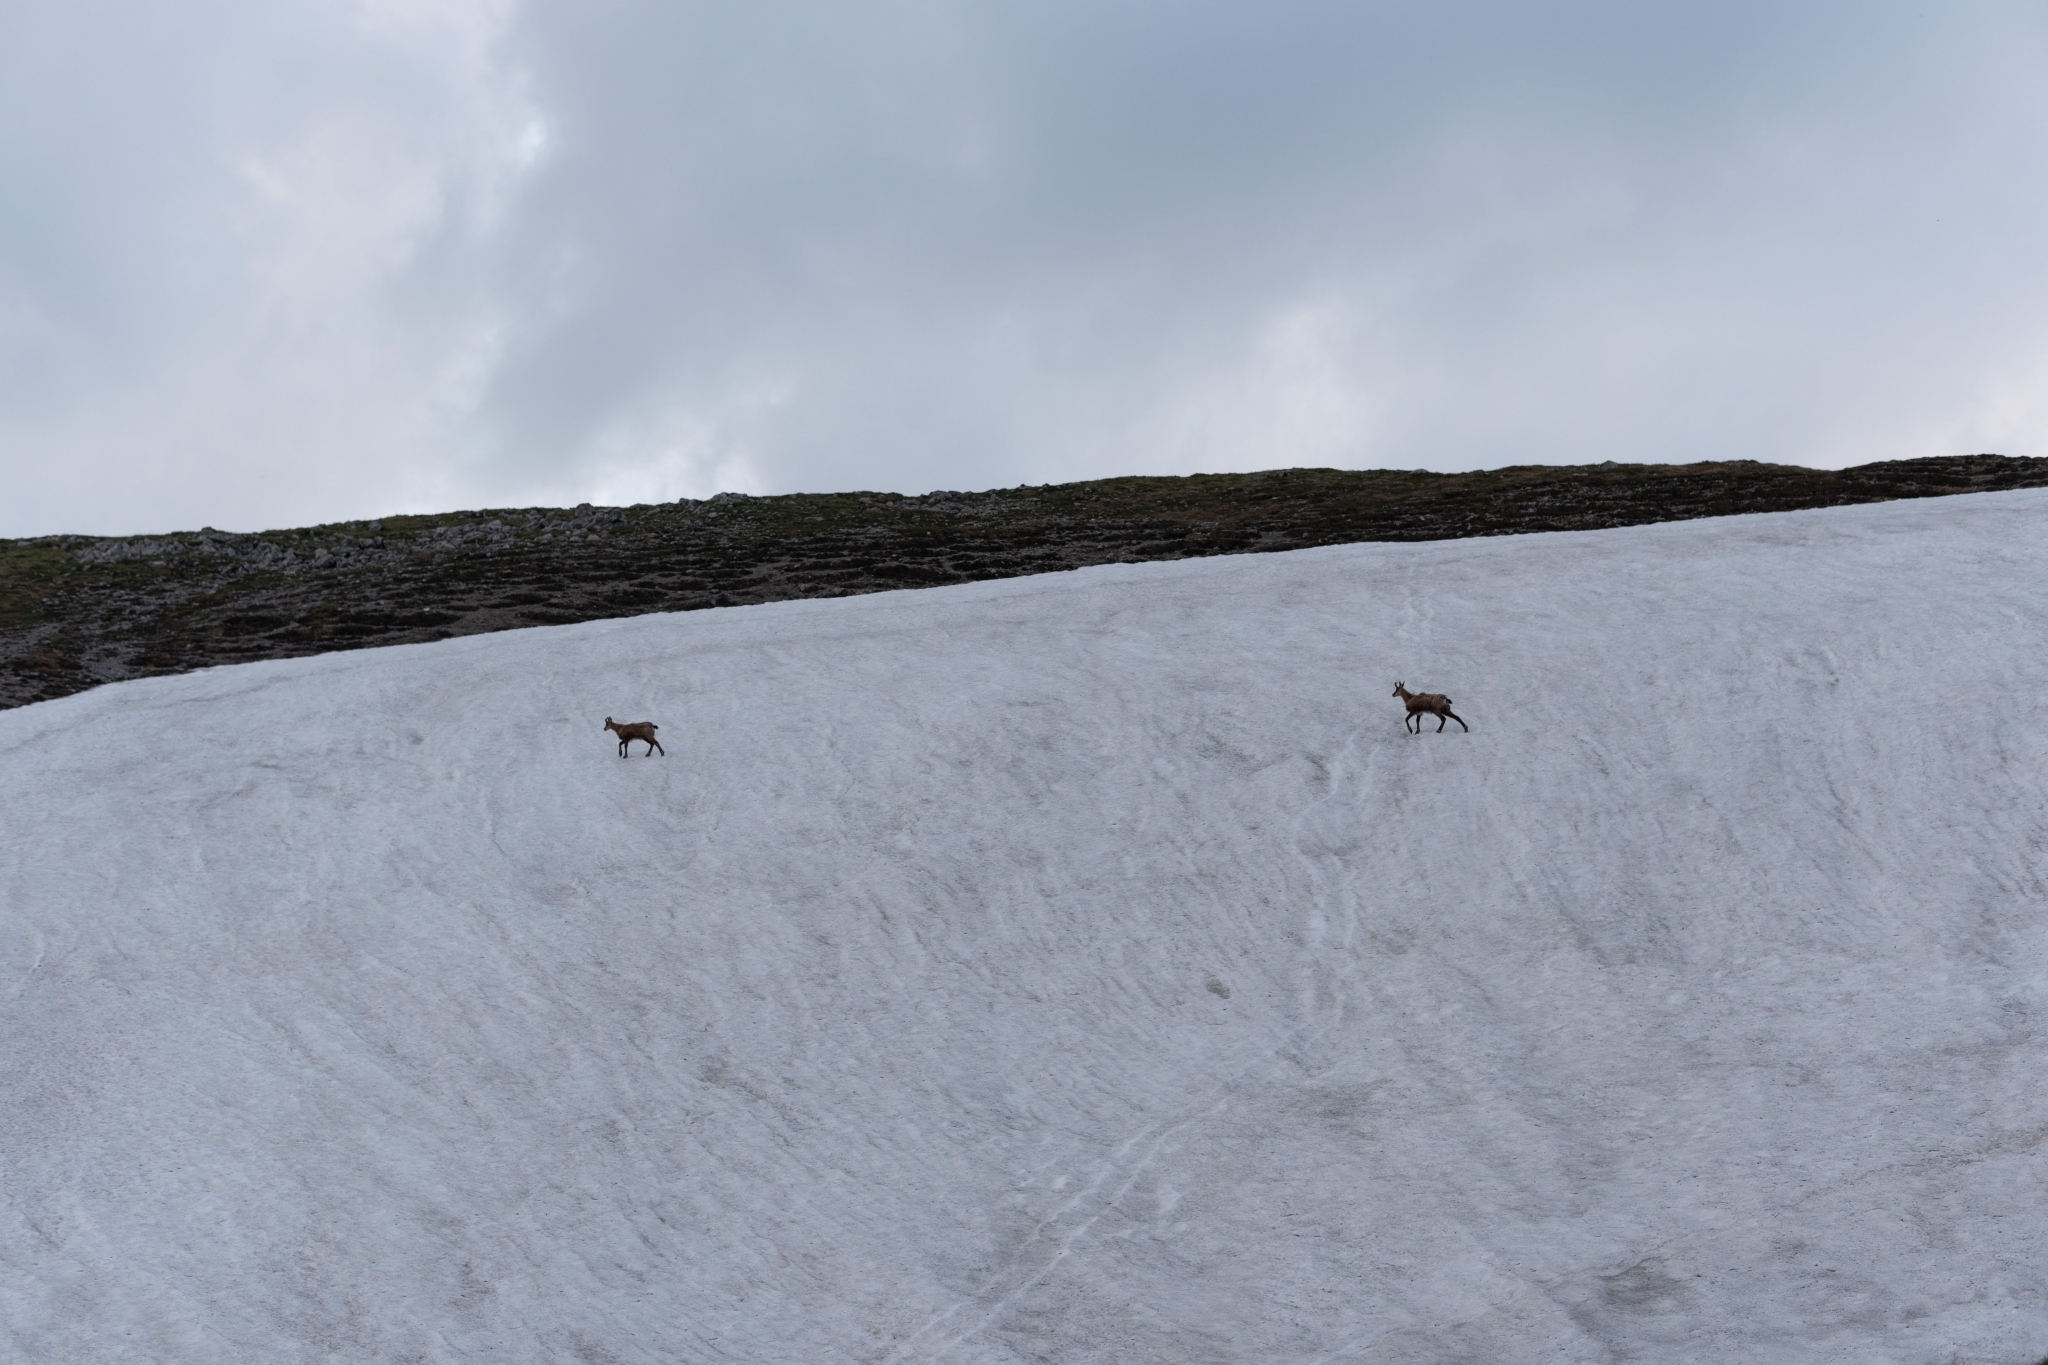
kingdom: Animalia
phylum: Chordata
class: Mammalia
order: Artiodactyla
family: Bovidae
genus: Rupicapra
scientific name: Rupicapra rupicapra
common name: Chamois
